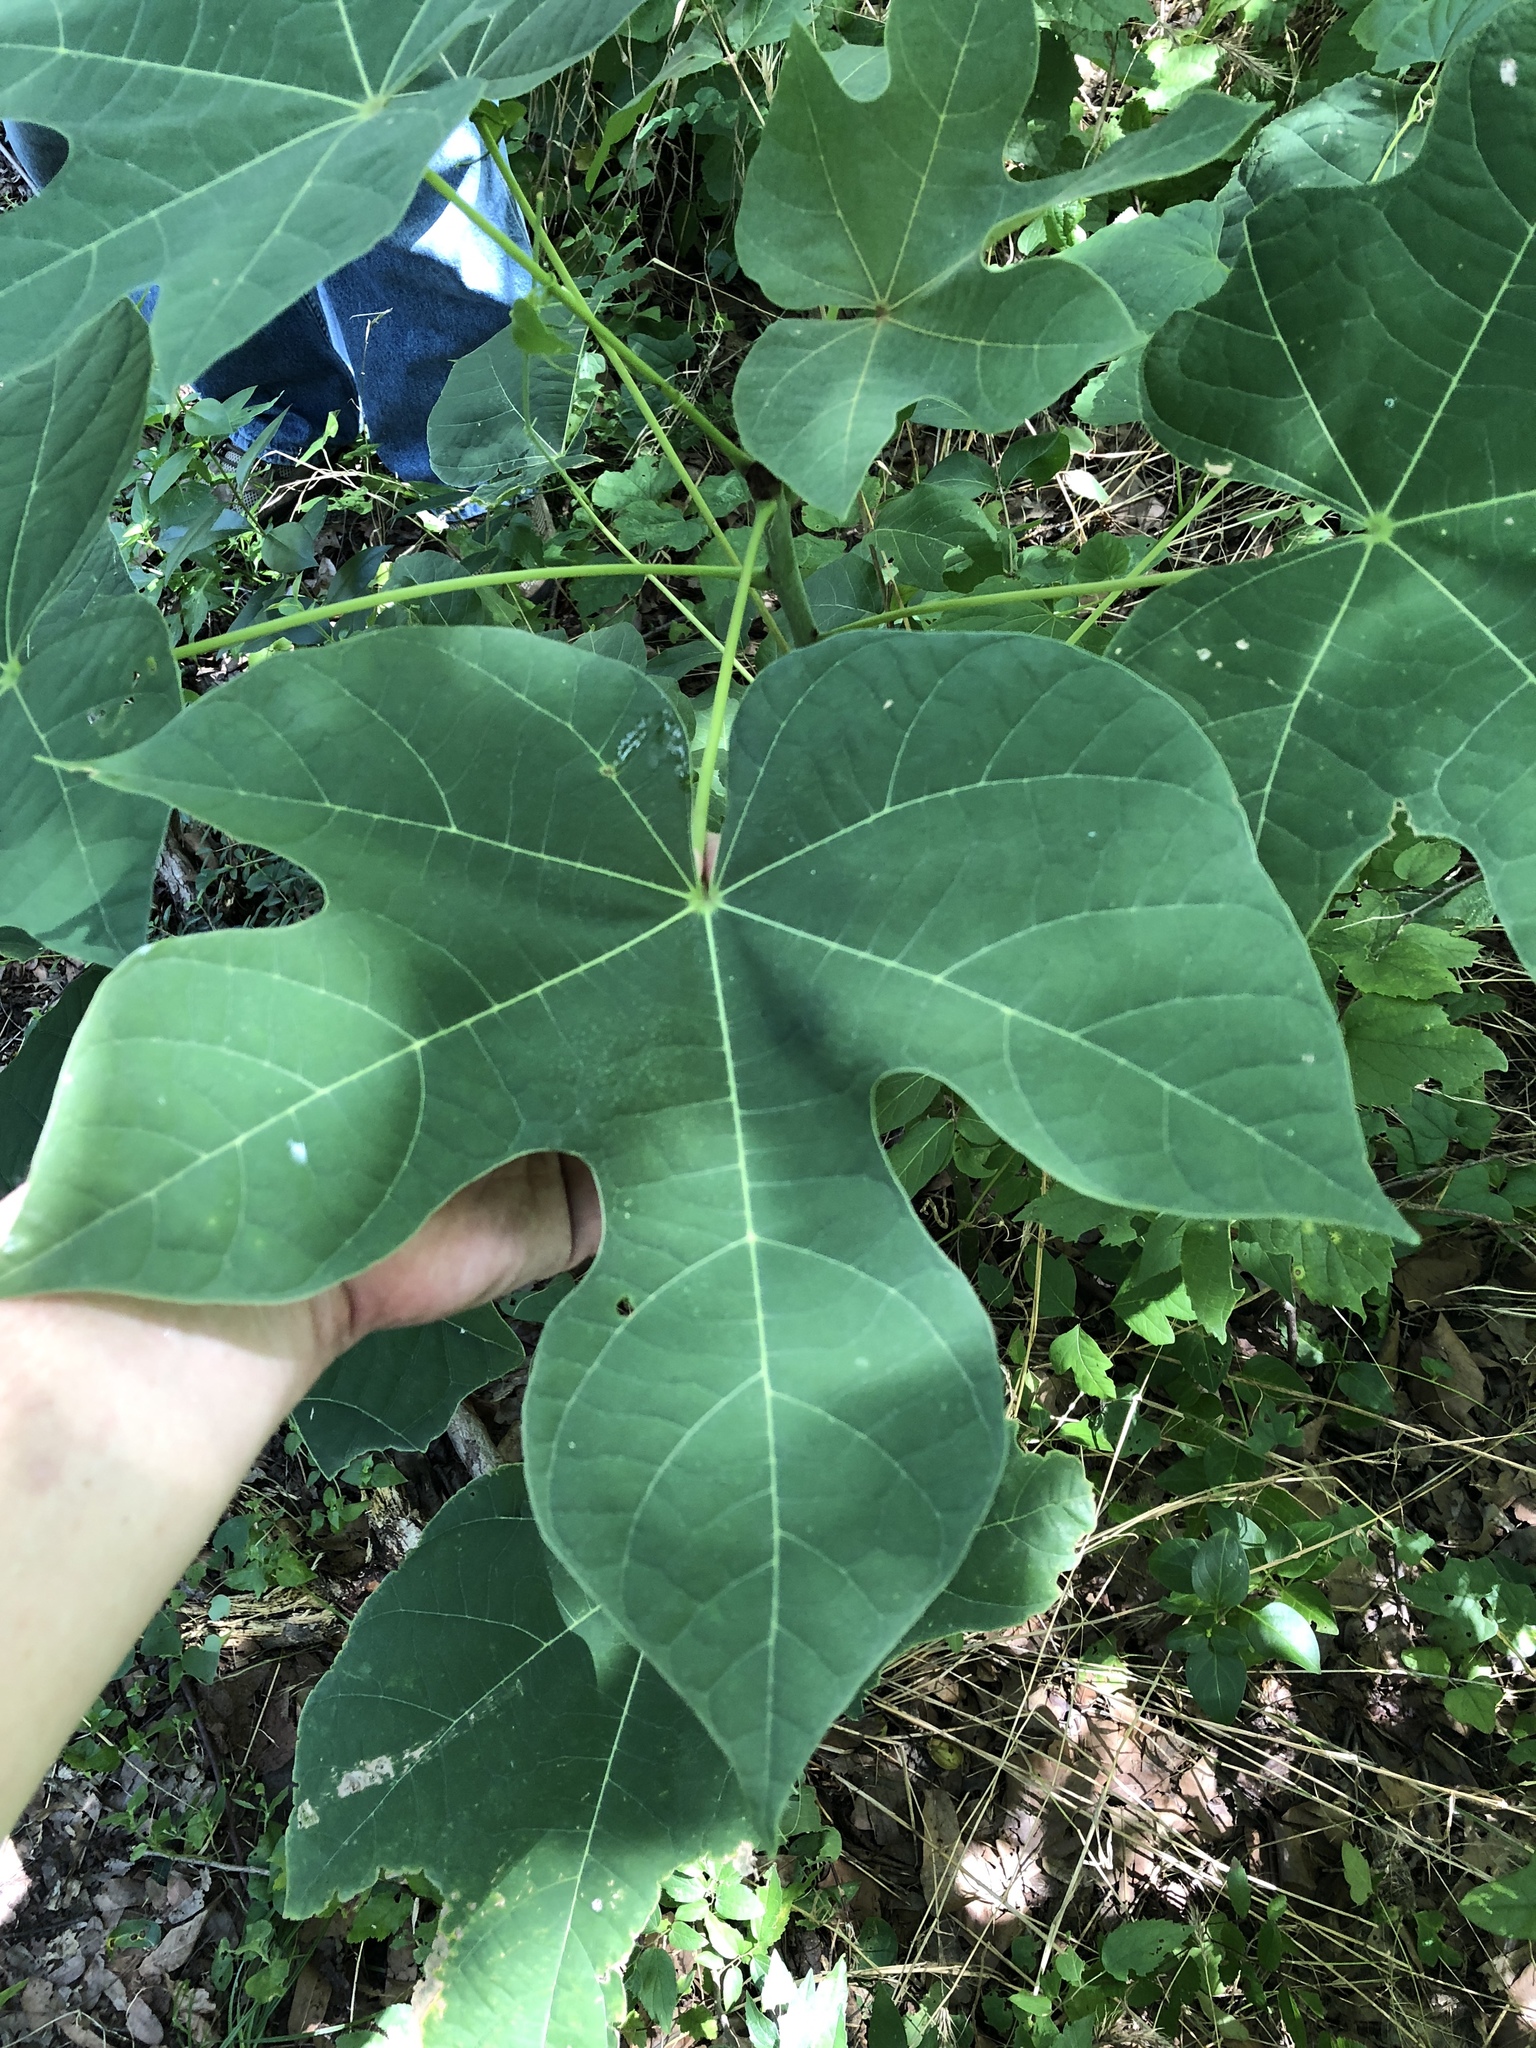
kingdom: Plantae
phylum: Tracheophyta
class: Magnoliopsida
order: Malvales
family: Malvaceae
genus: Firmiana
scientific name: Firmiana simplex
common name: Chinese parasoltree
